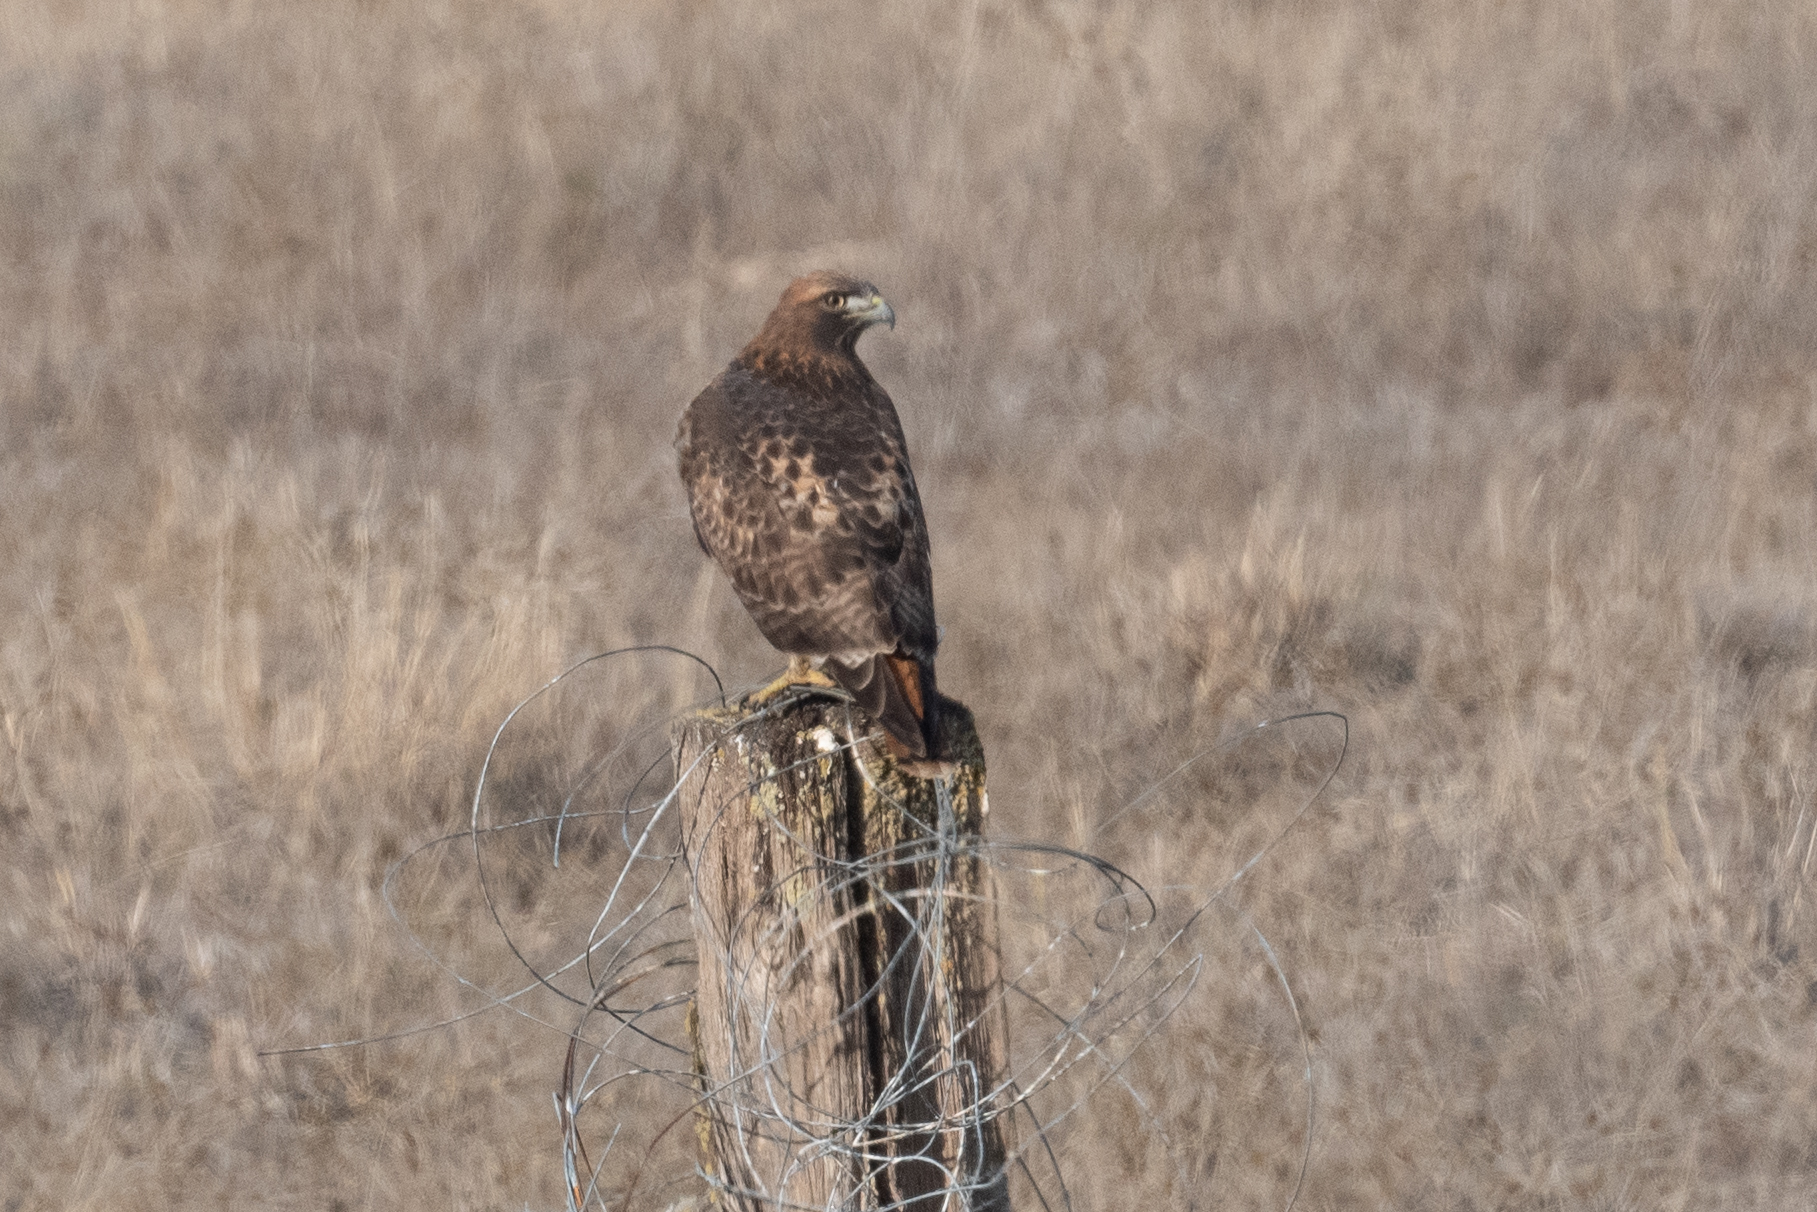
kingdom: Animalia
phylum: Chordata
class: Aves
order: Accipitriformes
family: Accipitridae
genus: Buteo
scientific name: Buteo jamaicensis
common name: Red-tailed hawk
